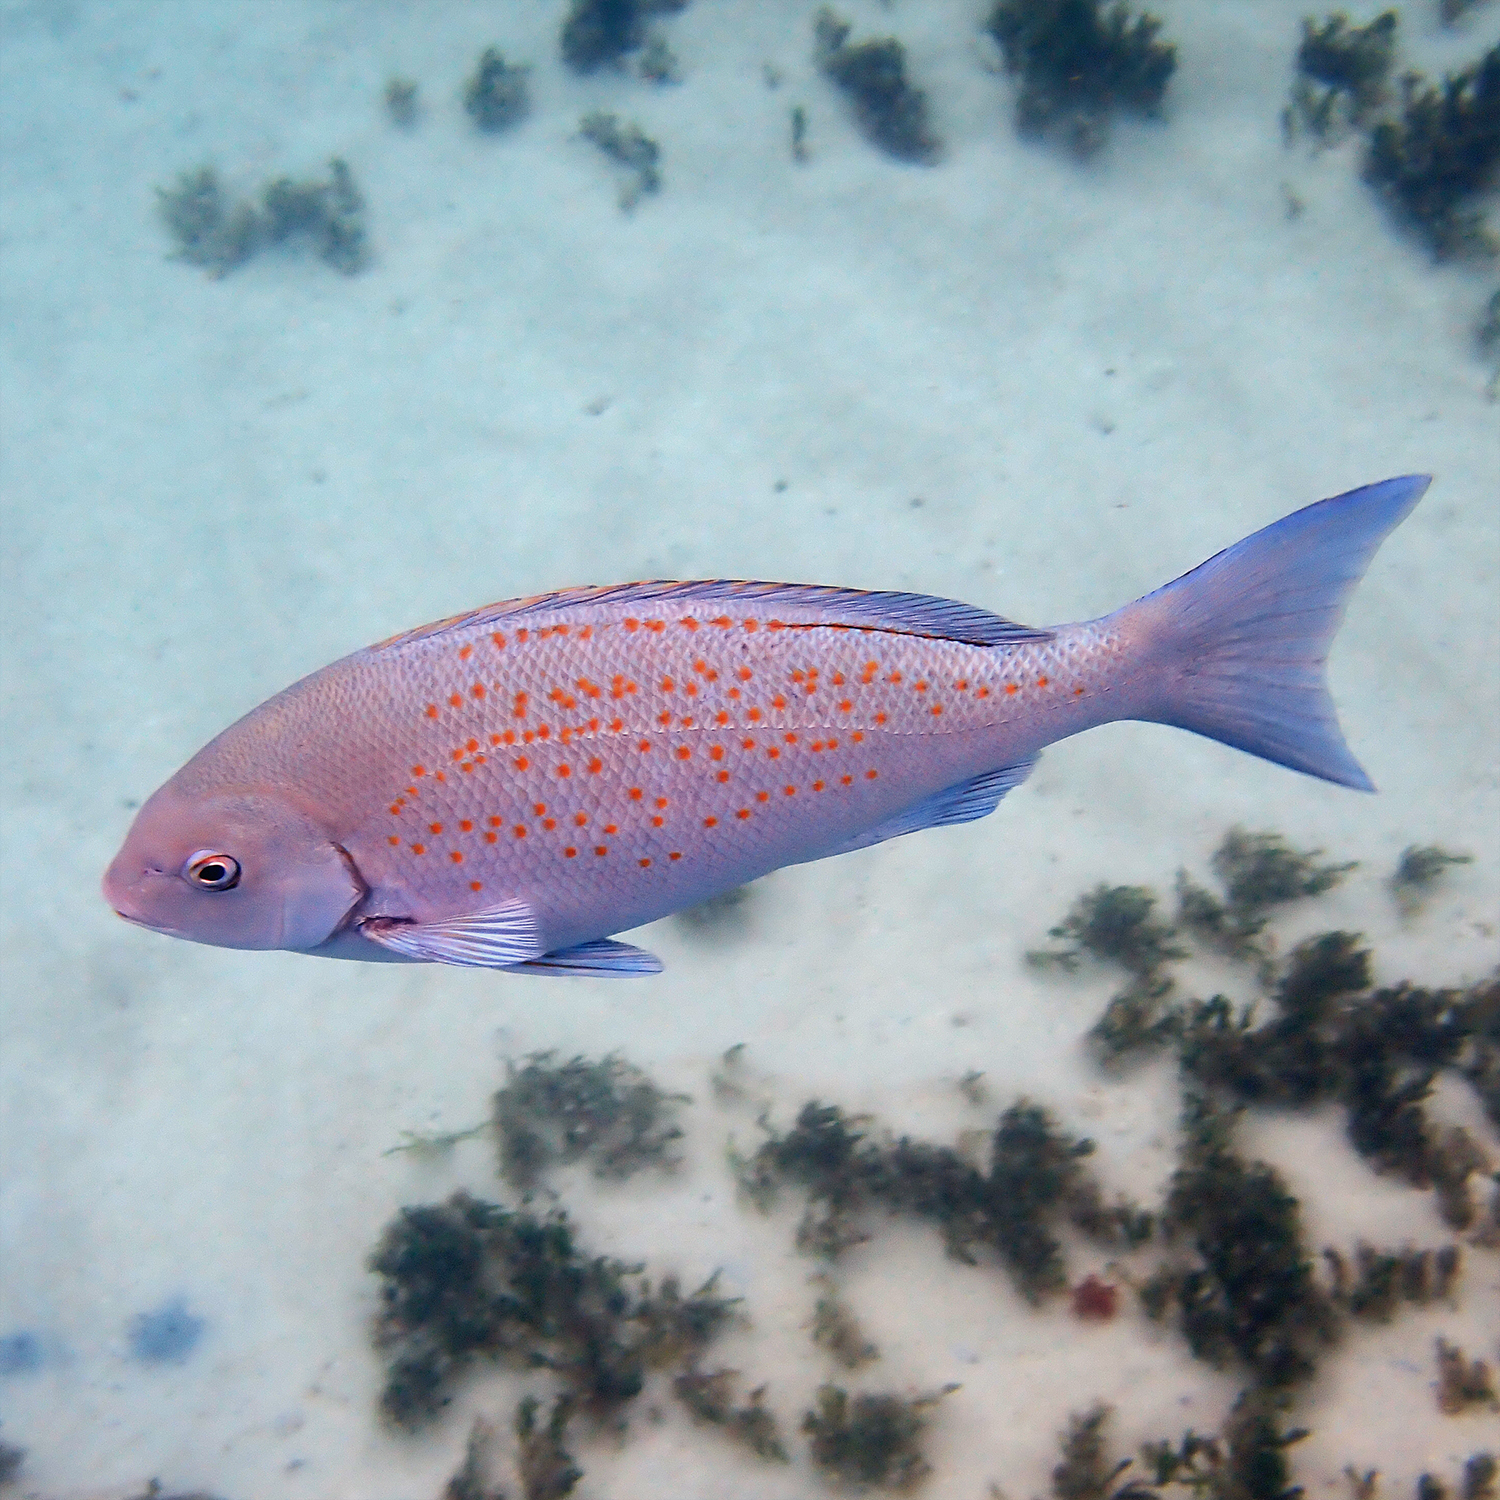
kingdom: Animalia
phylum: Chordata
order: Perciformes
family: Kyphosidae
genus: Girella
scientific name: Girella cyanea
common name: Bluefish
